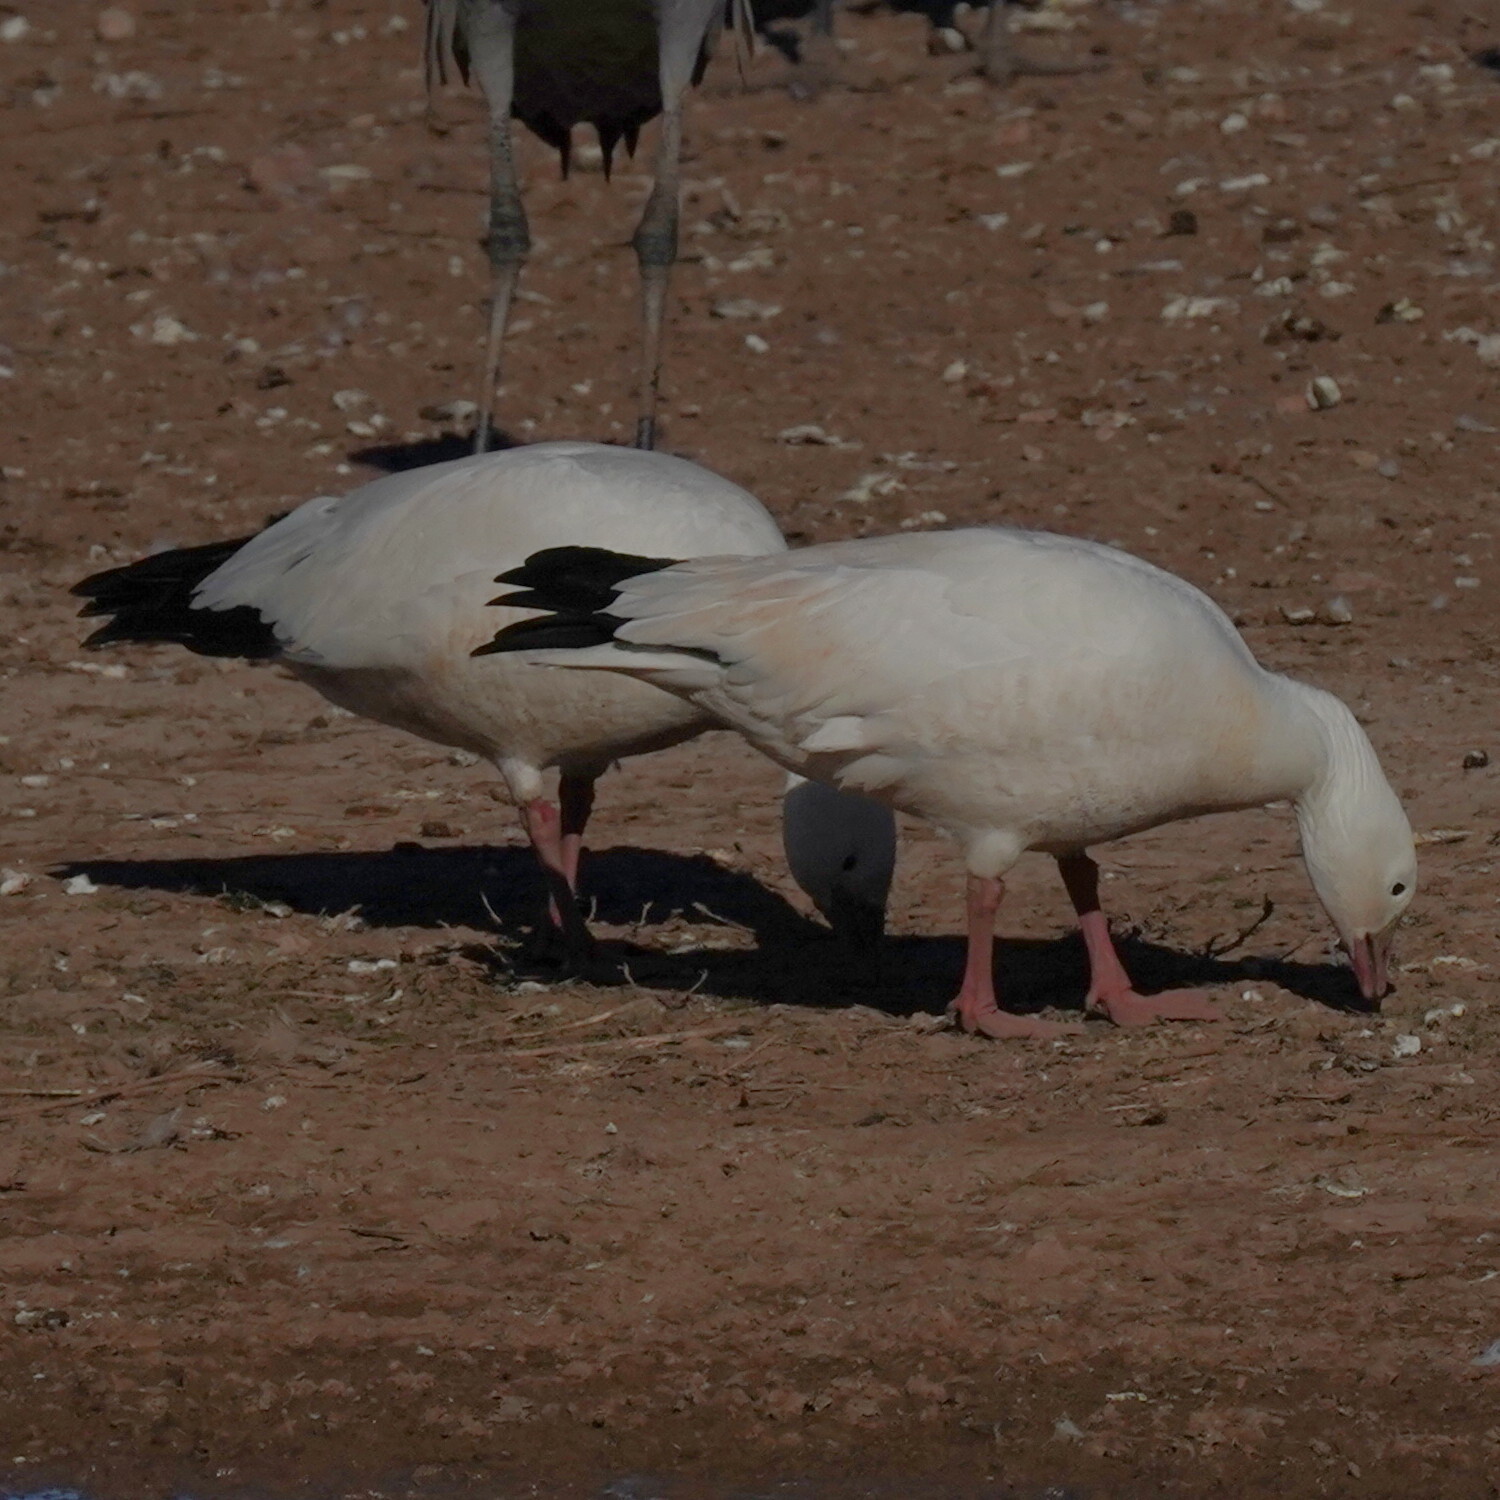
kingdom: Animalia
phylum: Chordata
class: Aves
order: Anseriformes
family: Anatidae
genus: Anser
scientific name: Anser caerulescens
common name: Snow goose
